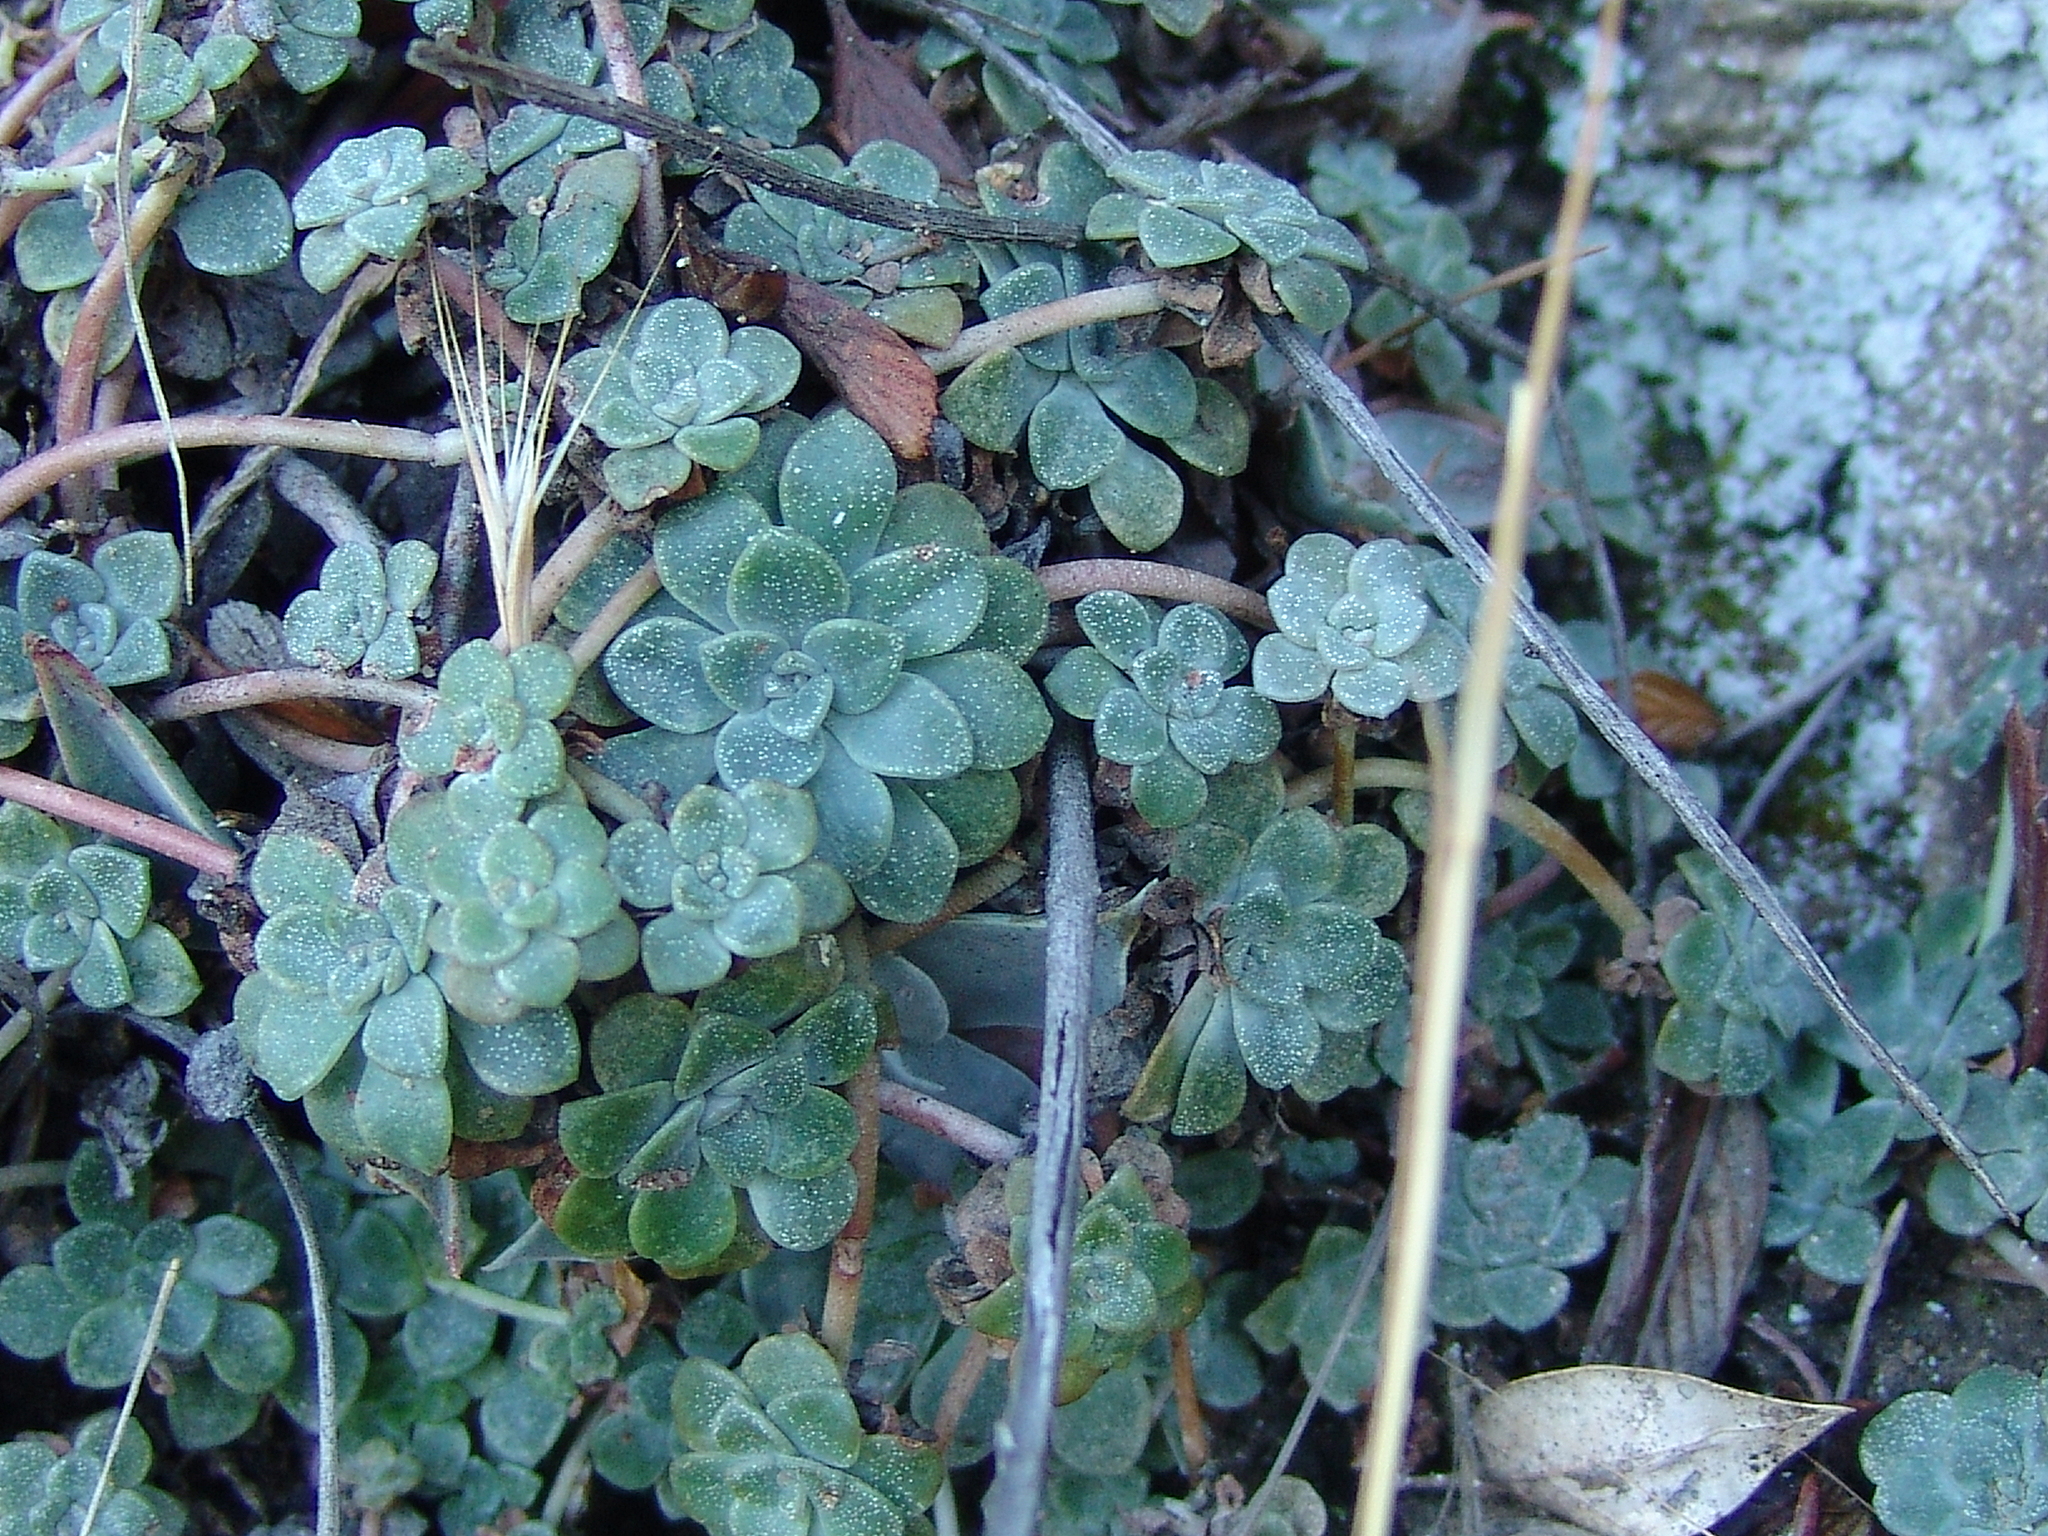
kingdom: Plantae
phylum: Tracheophyta
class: Magnoliopsida
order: Saxifragales
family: Crassulaceae
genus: Sedum
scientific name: Sedum spathulifolium
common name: Colorado stonecrop
